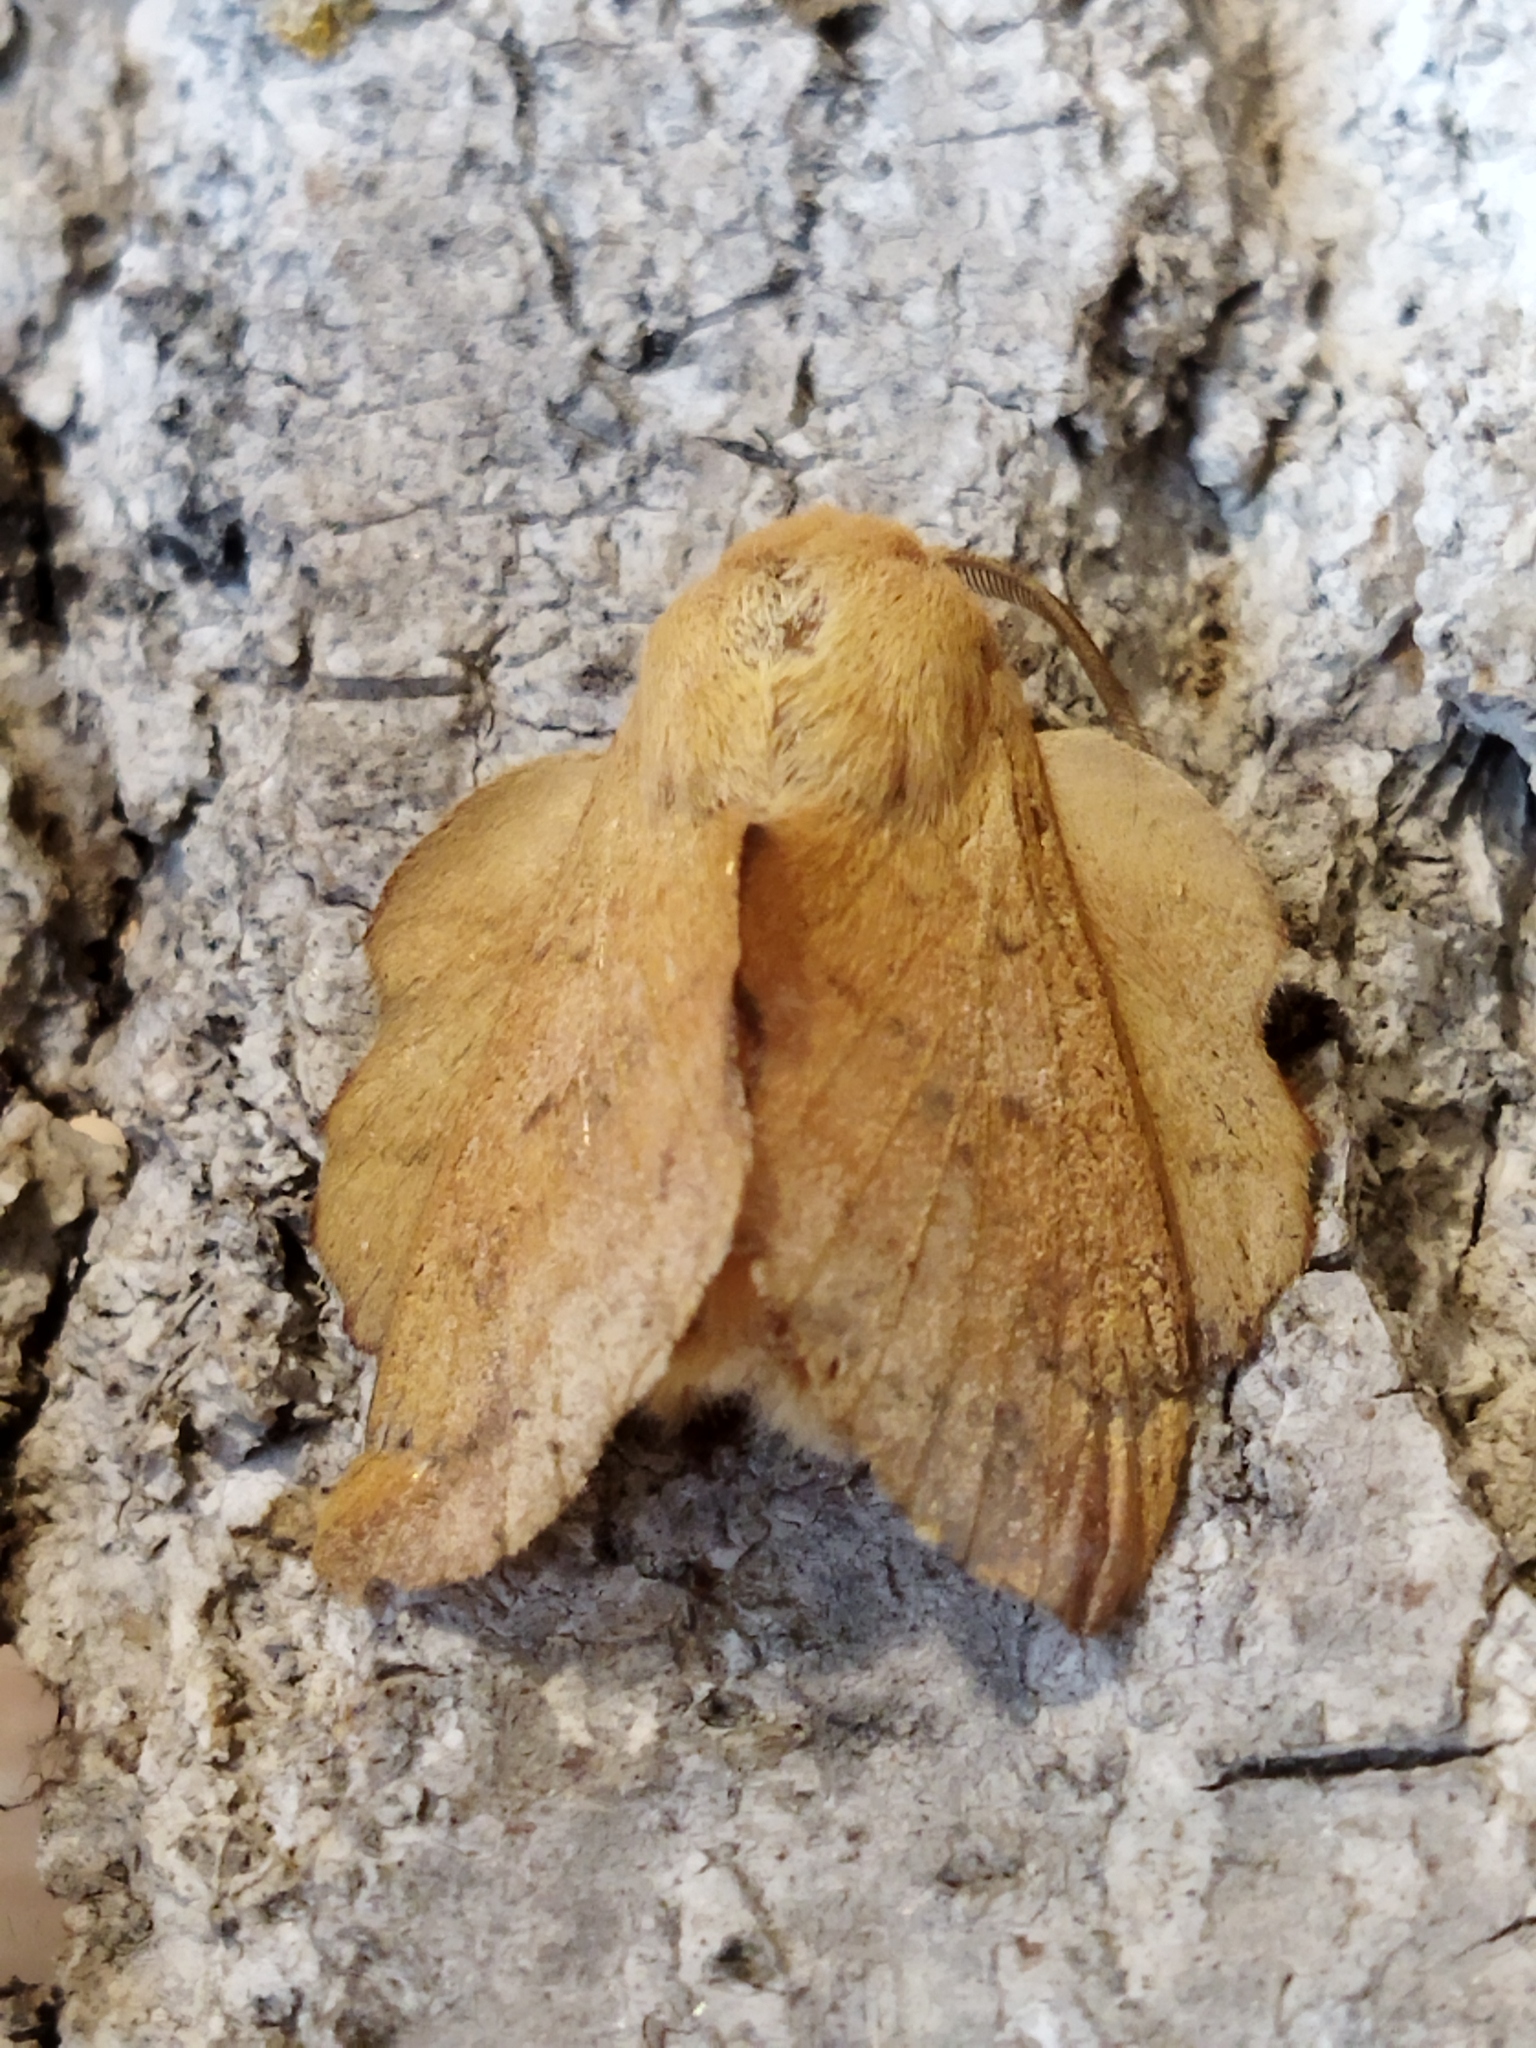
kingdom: Animalia
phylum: Arthropoda
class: Insecta
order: Lepidoptera
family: Lasiocampidae
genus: Phyllodesma
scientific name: Phyllodesma tremulifolia
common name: Aspen lappet
